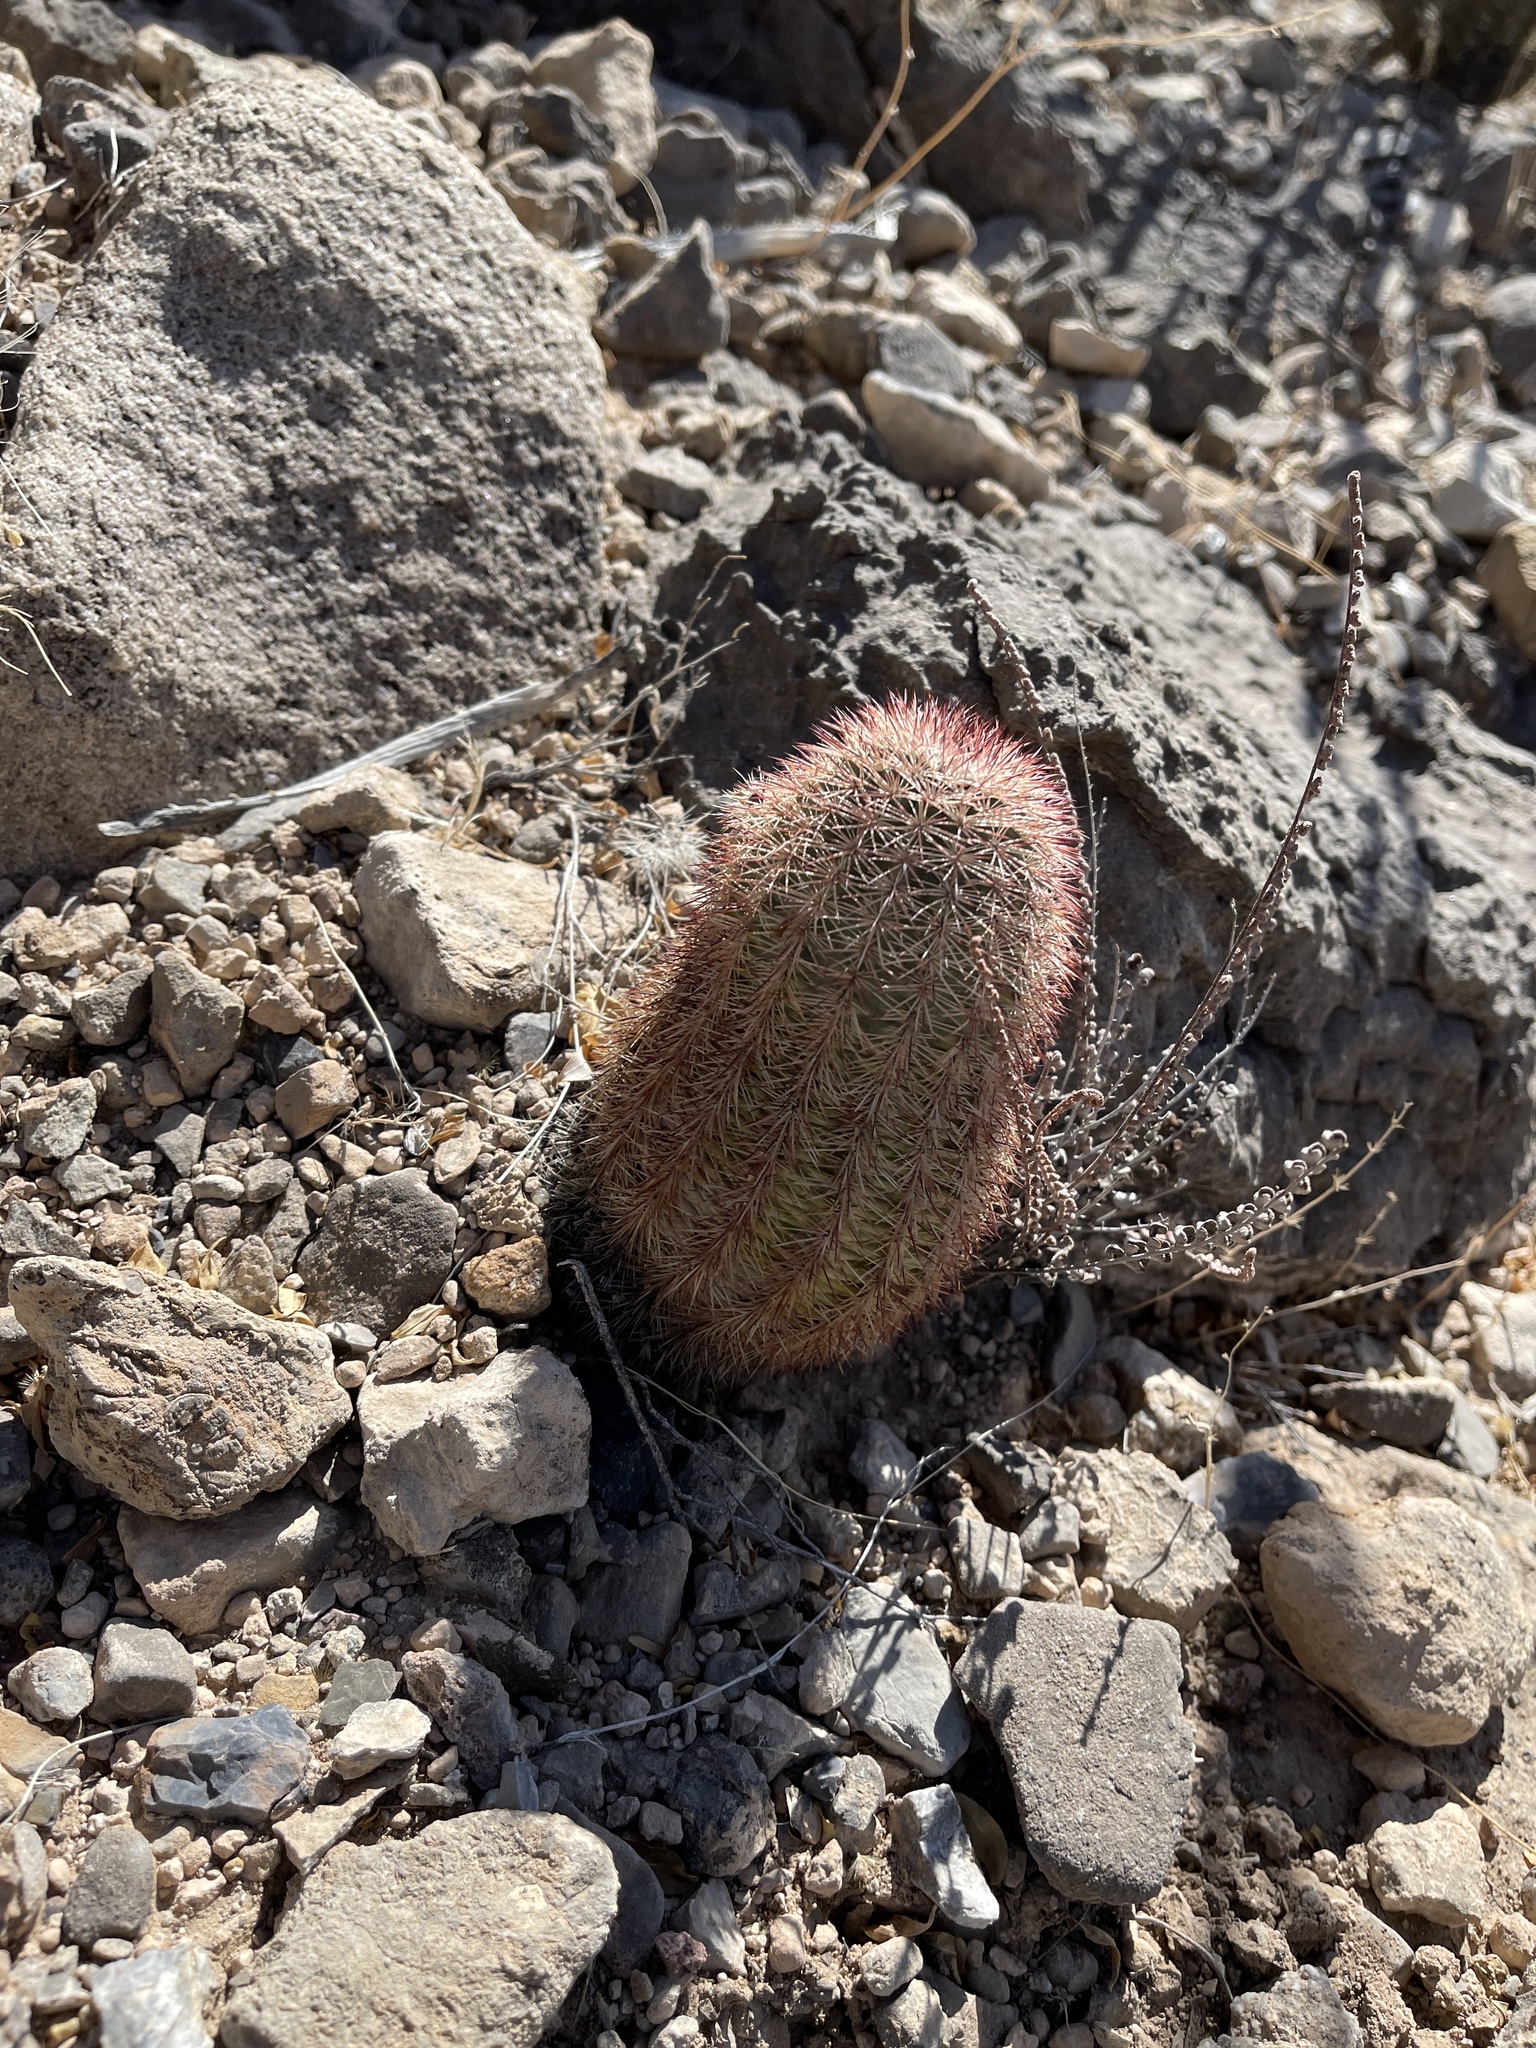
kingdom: Plantae
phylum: Tracheophyta
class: Magnoliopsida
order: Caryophyllales
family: Cactaceae
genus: Echinocereus
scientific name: Echinocereus dasyacanthus
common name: Spiny hedgehog cactus
